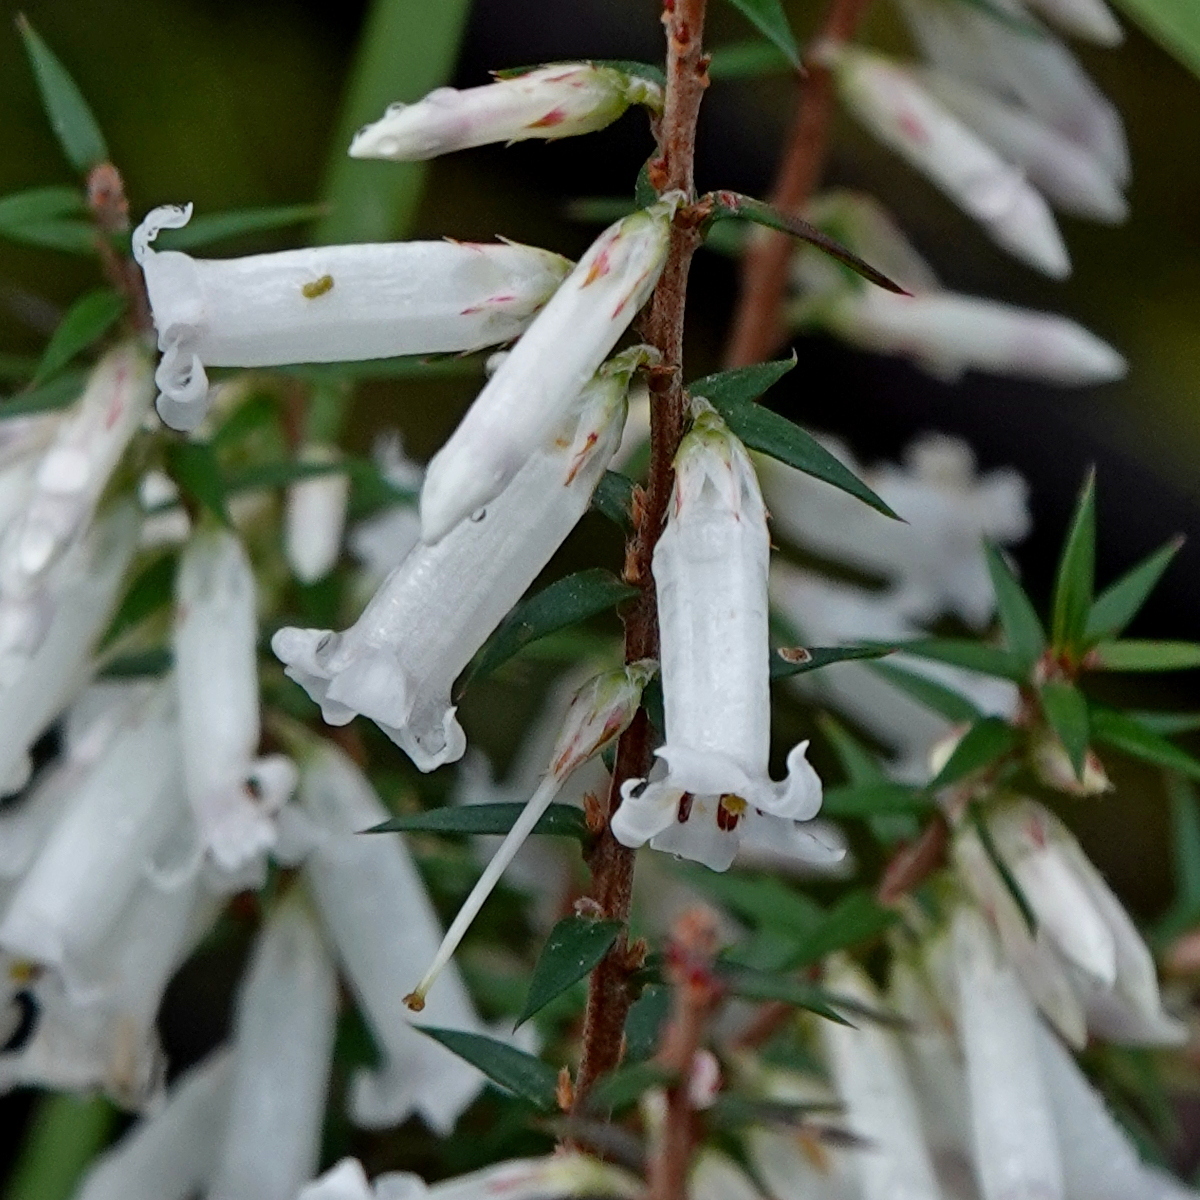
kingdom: Plantae
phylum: Tracheophyta
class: Magnoliopsida
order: Ericales
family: Ericaceae
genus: Epacris
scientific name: Epacris impressa
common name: Common-heath
